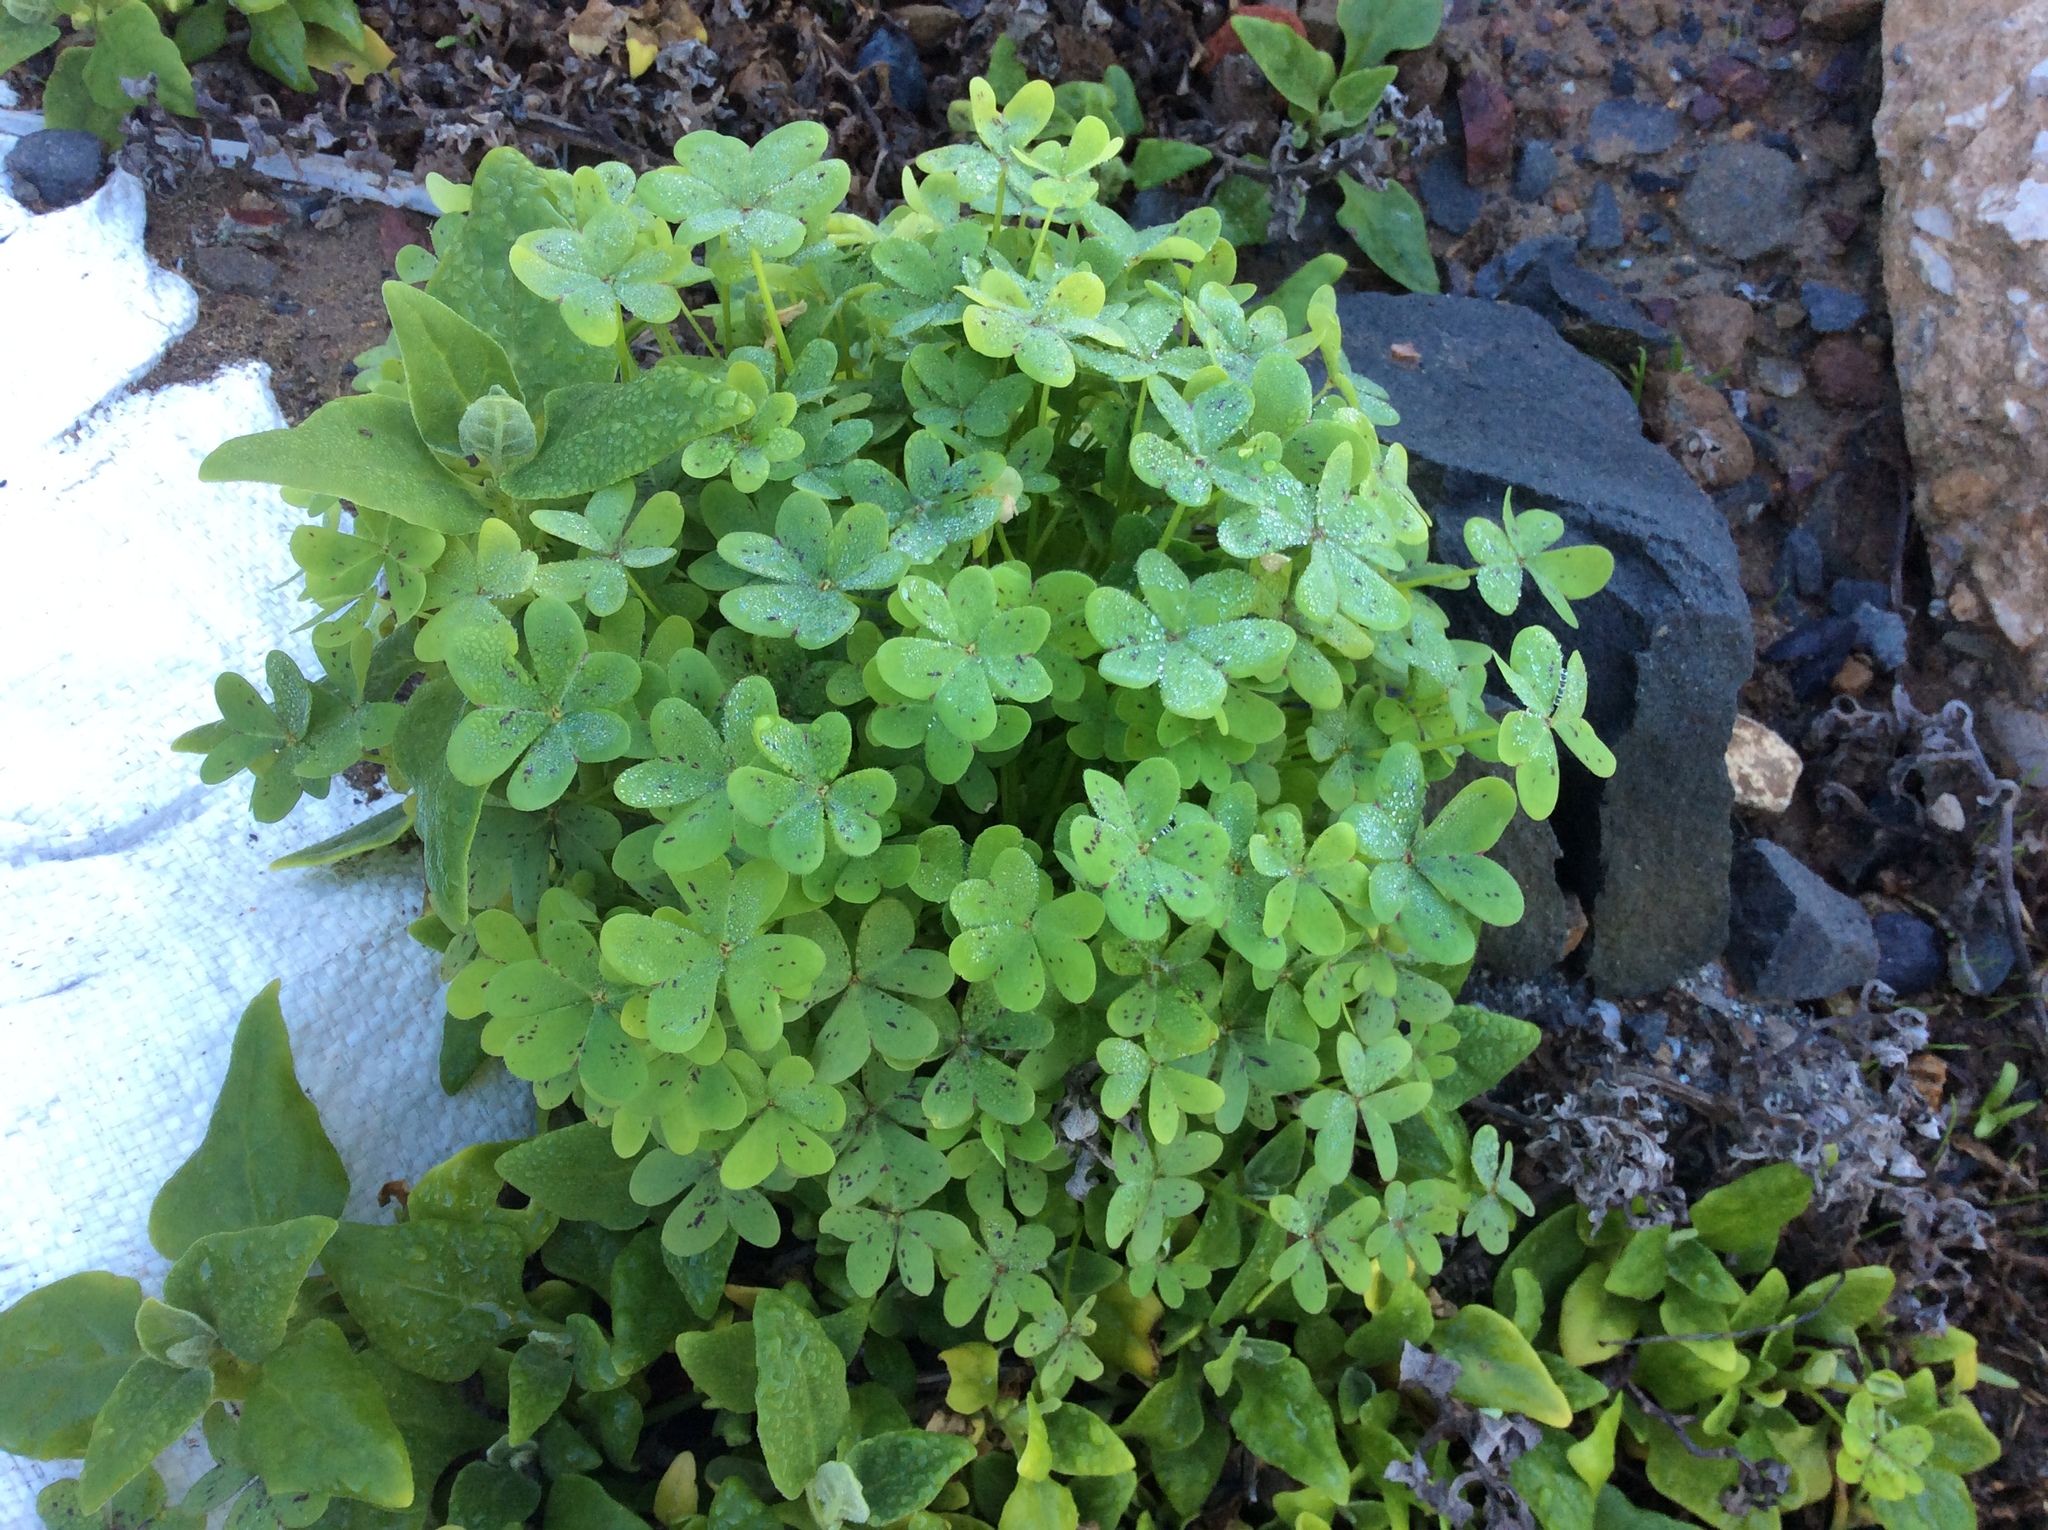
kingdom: Plantae
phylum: Tracheophyta
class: Magnoliopsida
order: Oxalidales
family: Oxalidaceae
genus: Oxalis
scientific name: Oxalis pes-caprae
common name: Bermuda-buttercup
